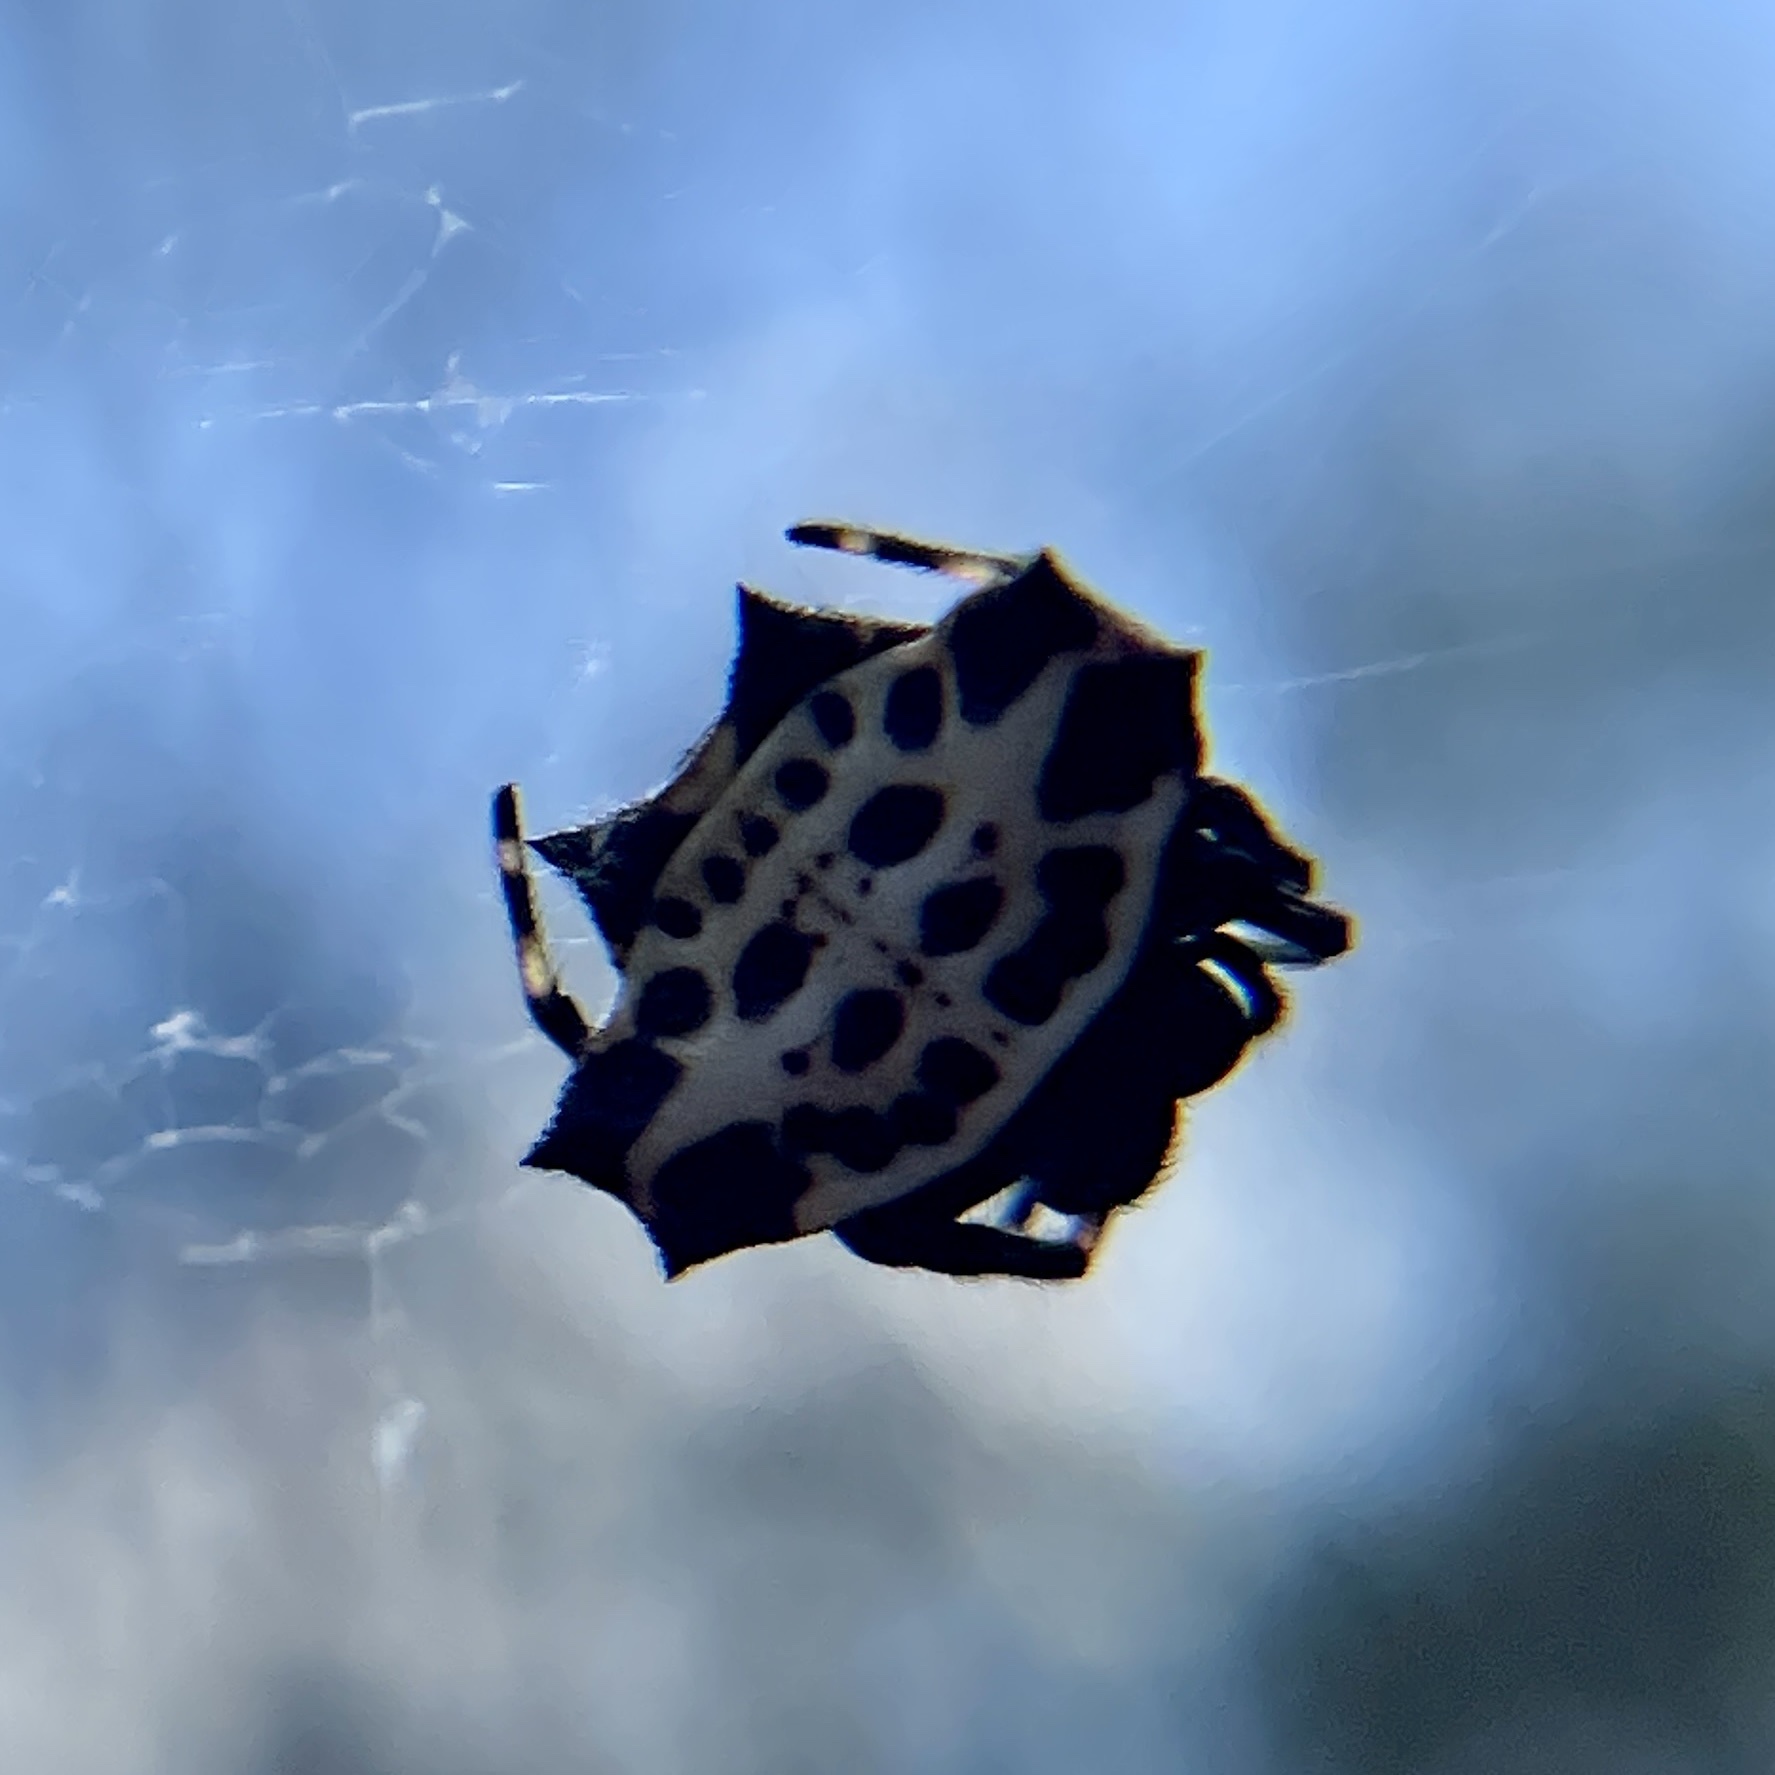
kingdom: Animalia
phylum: Arthropoda
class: Arachnida
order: Araneae
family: Araneidae
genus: Gasteracantha
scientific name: Gasteracantha cancriformis
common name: Orb weavers
